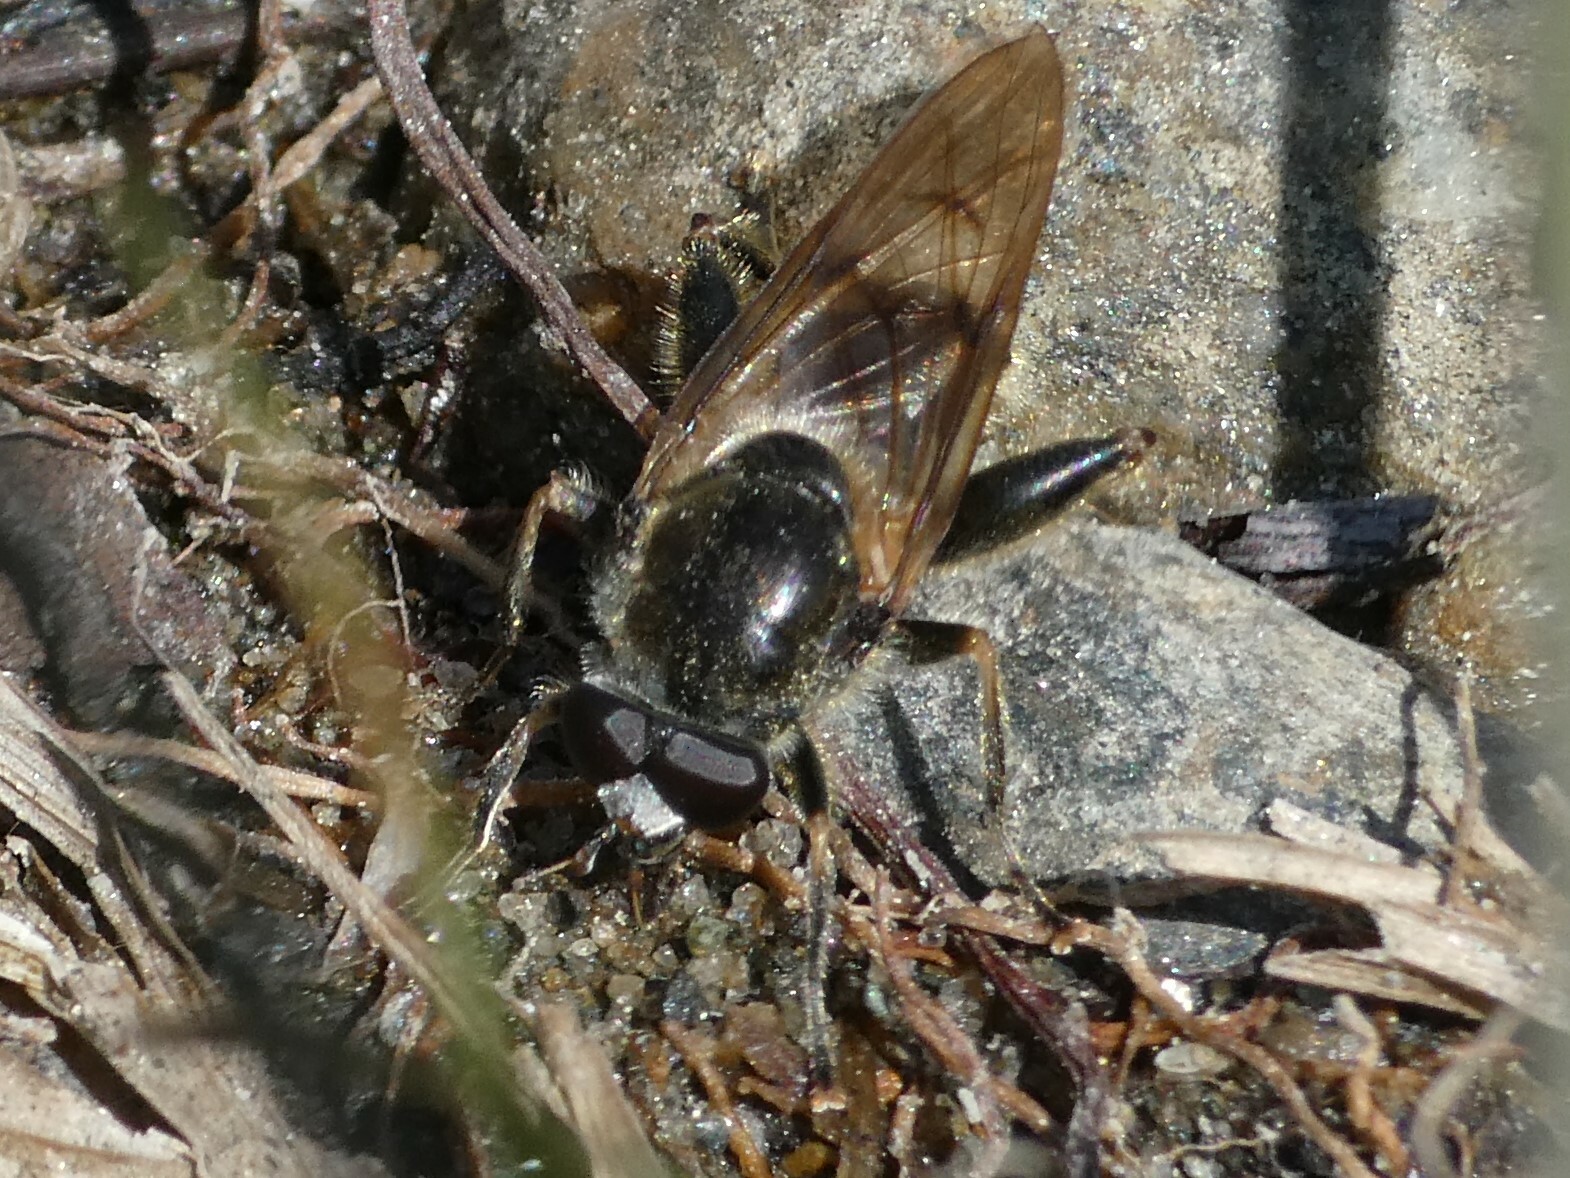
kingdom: Animalia
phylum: Arthropoda
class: Insecta
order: Diptera
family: Syrphidae
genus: Brachypalpus
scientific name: Brachypalpus oarus
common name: Eastern catkin fly
